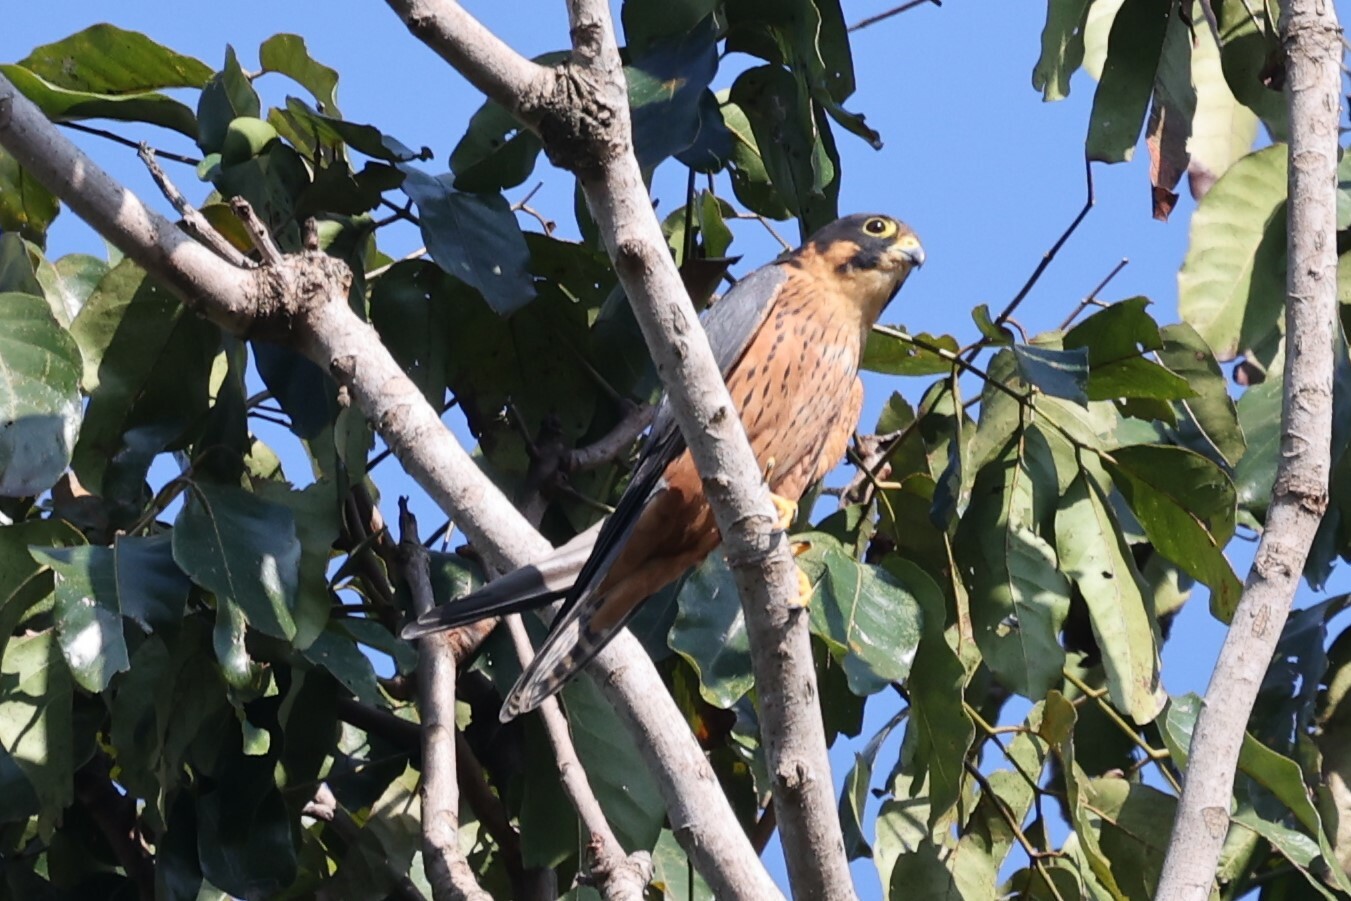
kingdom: Animalia
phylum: Chordata
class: Aves
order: Falconiformes
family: Falconidae
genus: Falco
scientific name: Falco cuvierii
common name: African hobby
